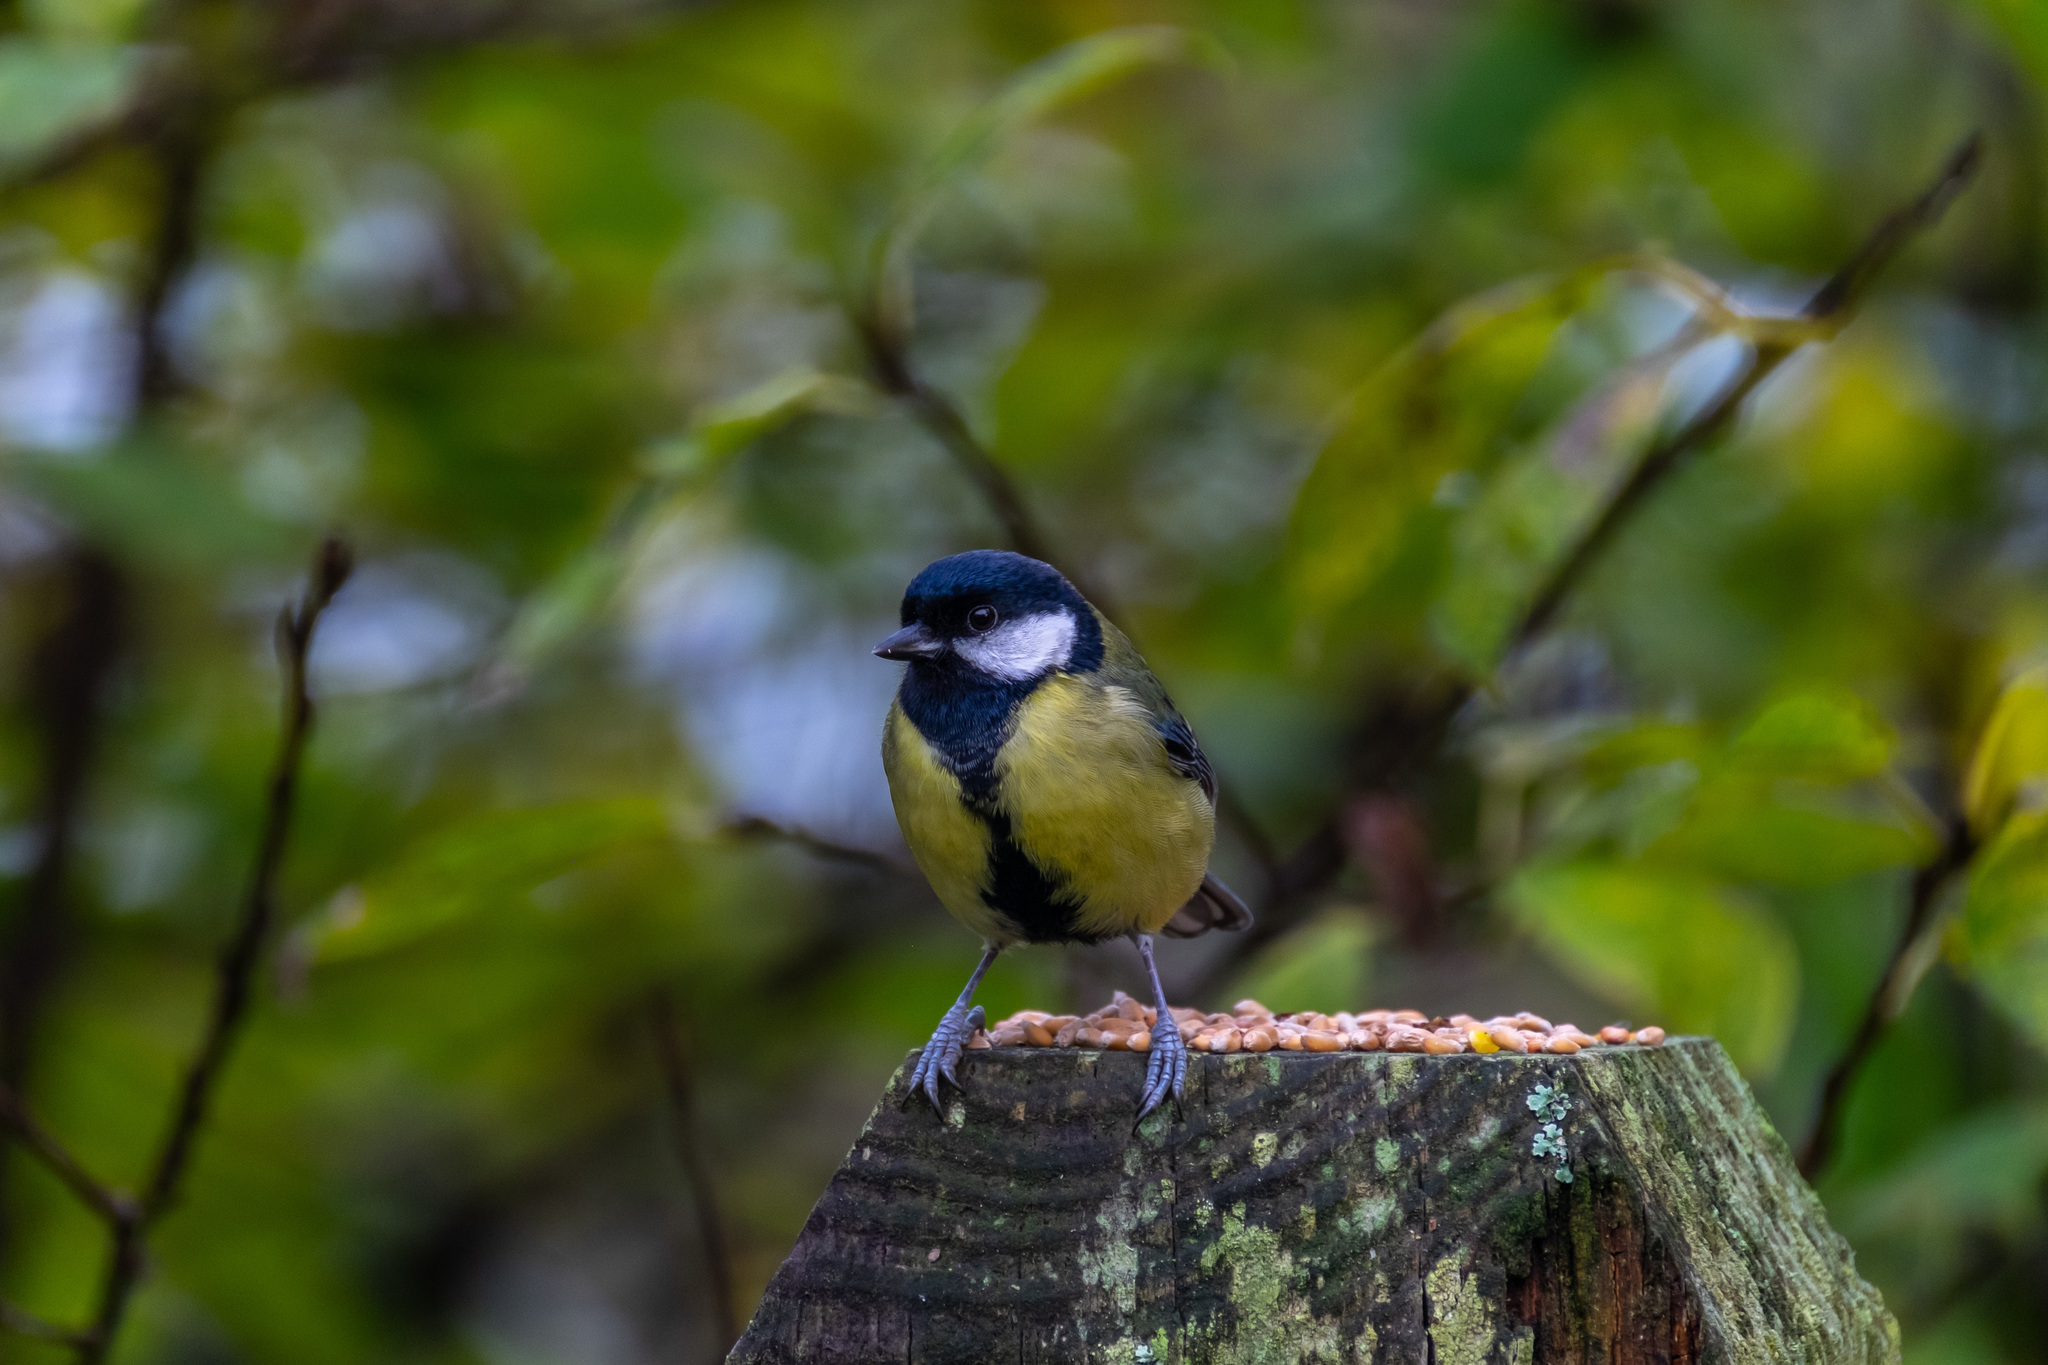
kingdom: Animalia
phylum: Chordata
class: Aves
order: Passeriformes
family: Paridae
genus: Parus
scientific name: Parus major
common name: Great tit
